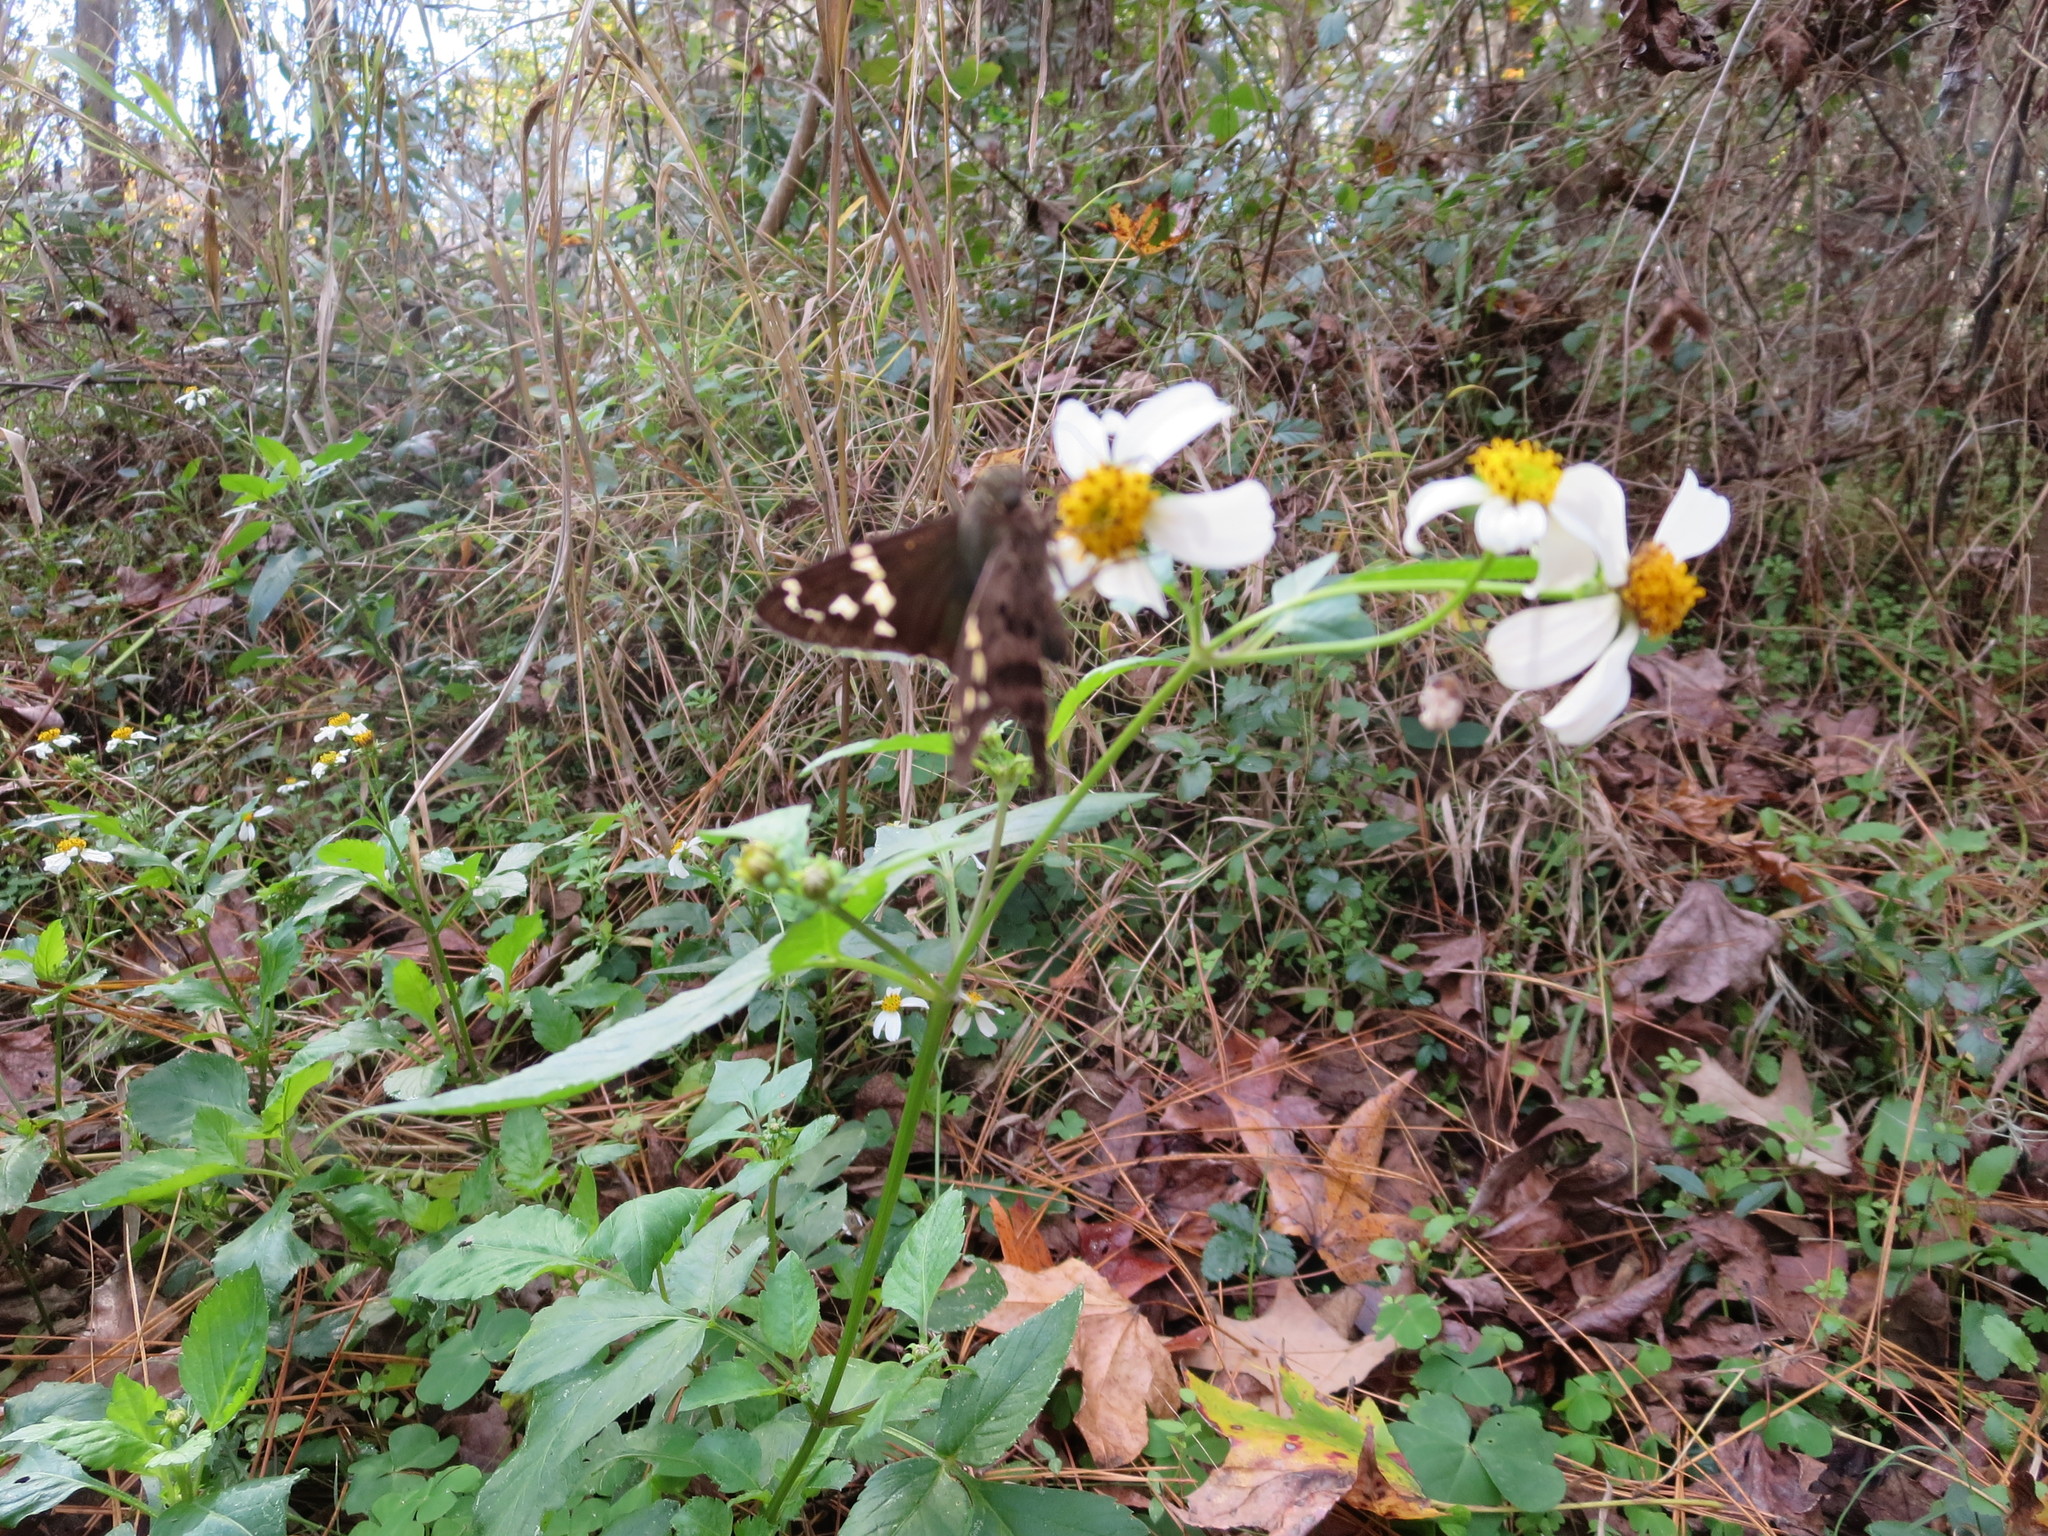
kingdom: Animalia
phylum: Arthropoda
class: Insecta
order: Lepidoptera
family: Hesperiidae
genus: Urbanus
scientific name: Urbanus proteus
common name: Long-tailed skipper
